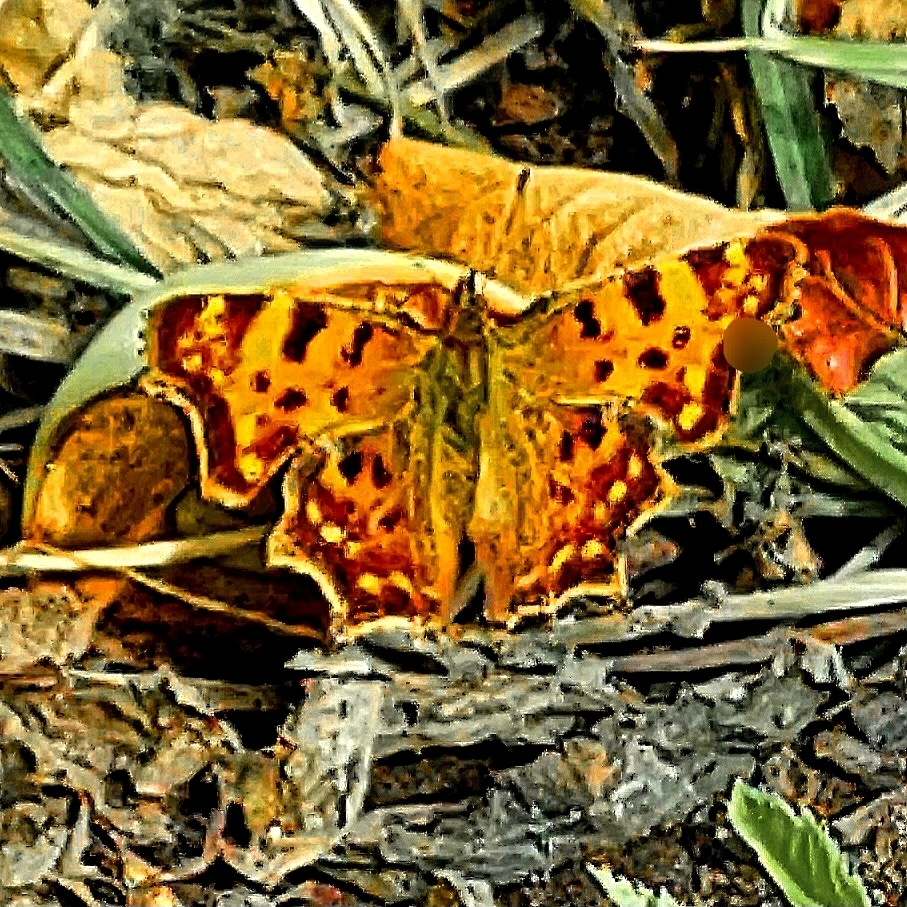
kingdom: Animalia
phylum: Arthropoda
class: Insecta
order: Lepidoptera
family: Nymphalidae
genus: Polygonia
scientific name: Polygonia c-album
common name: Comma
